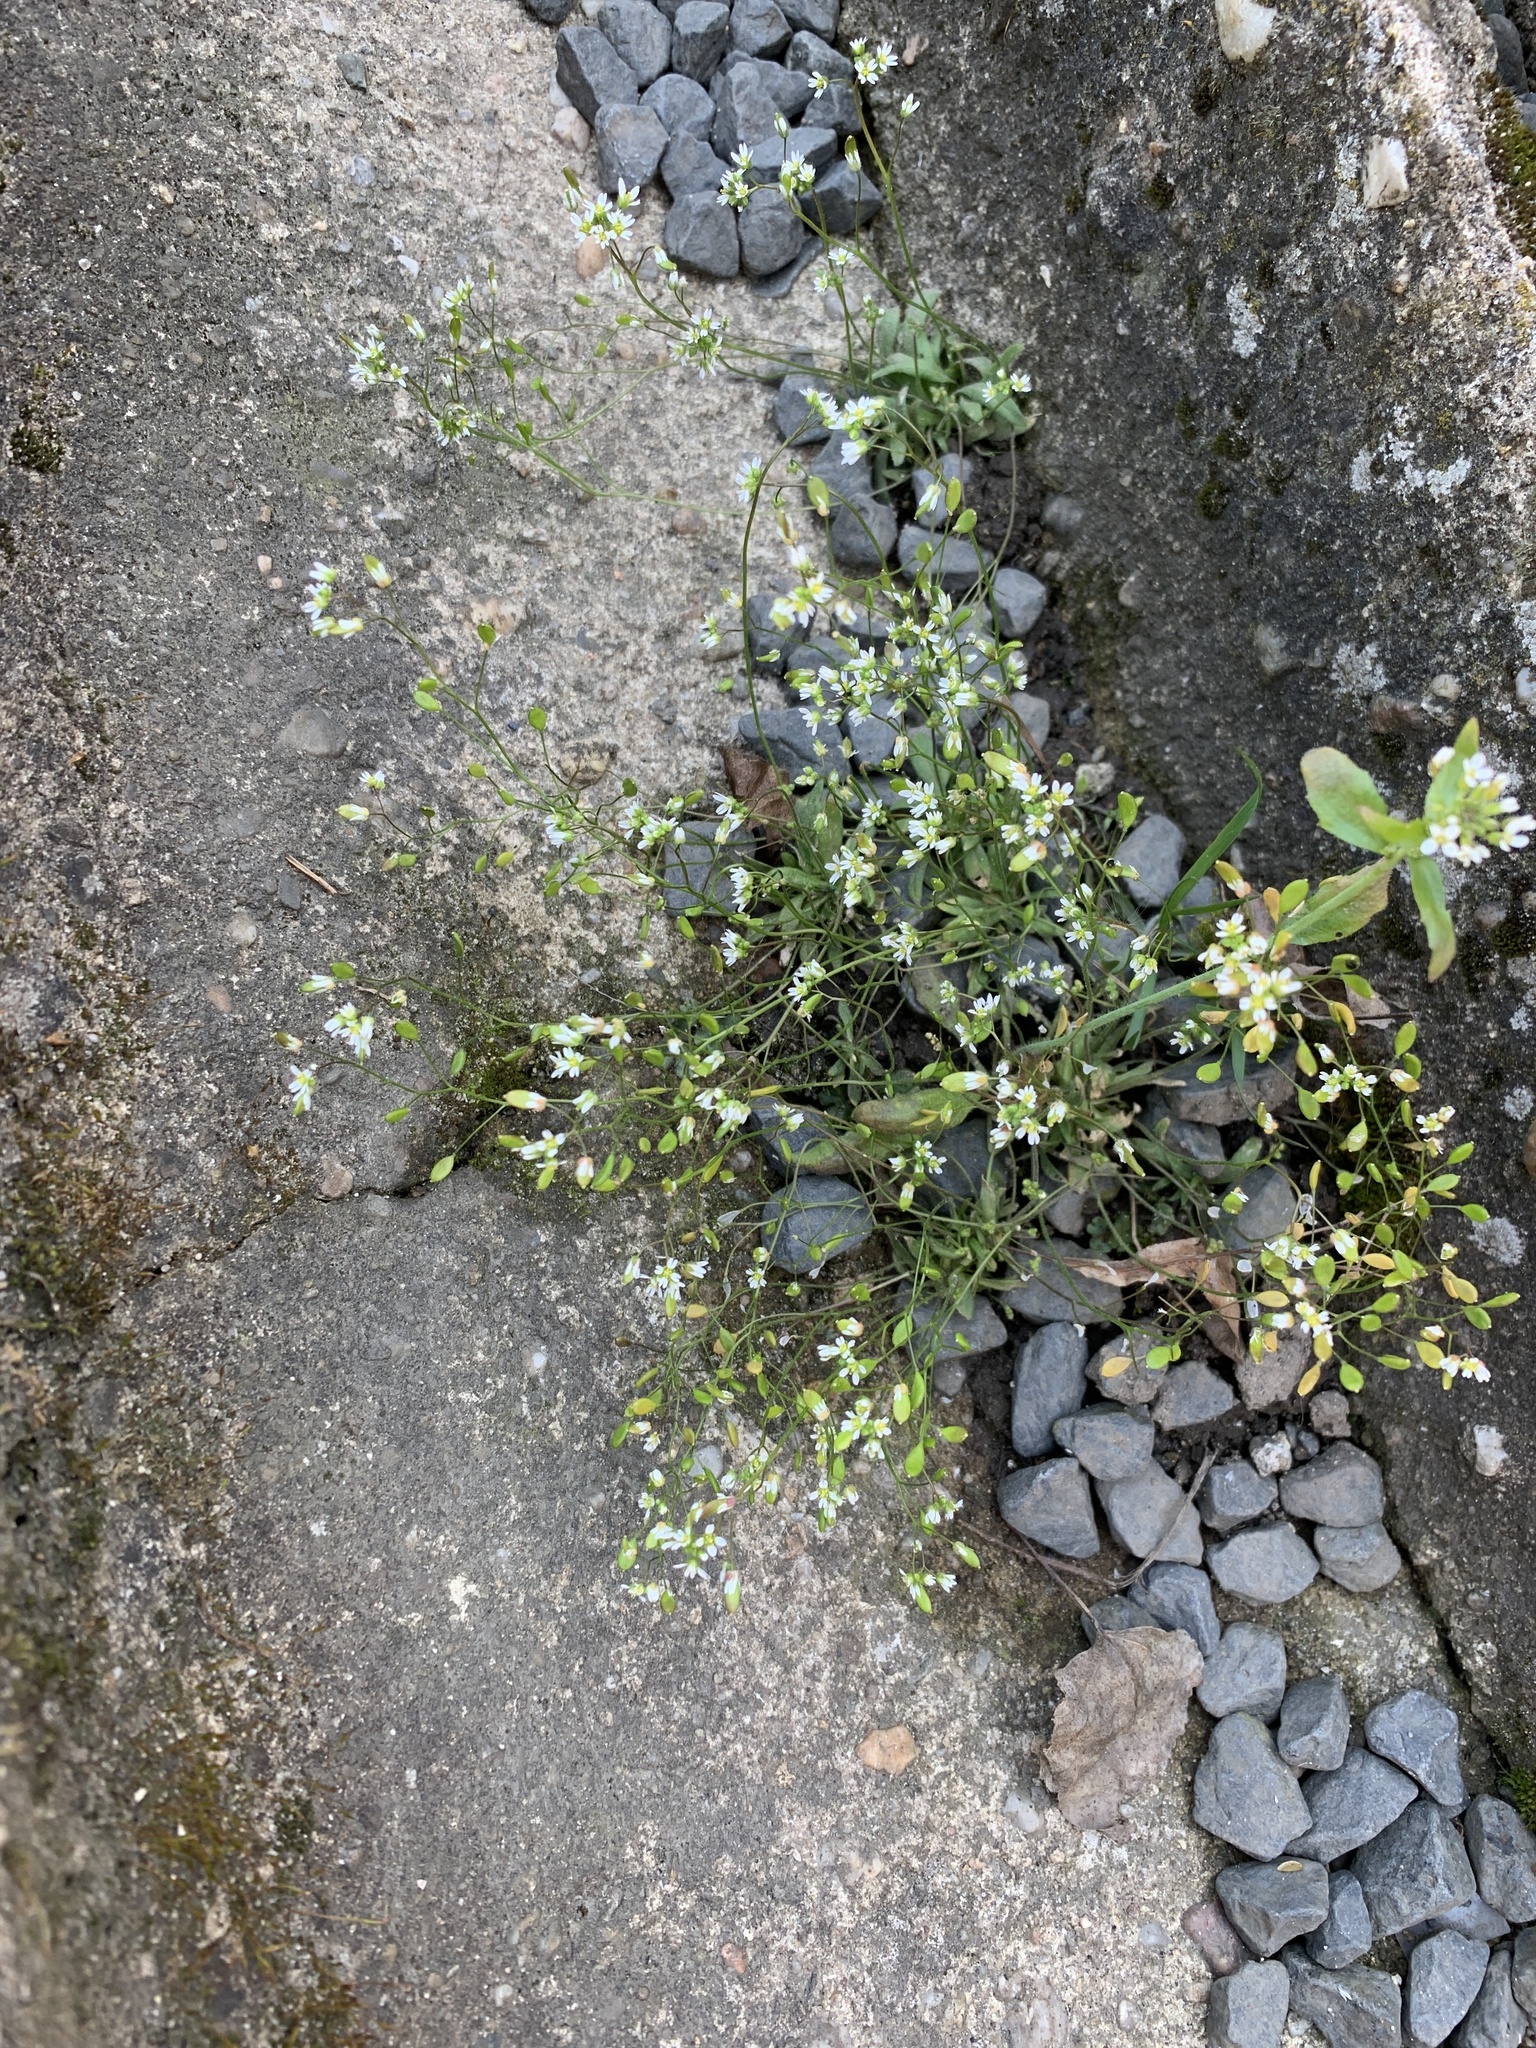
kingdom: Plantae
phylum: Tracheophyta
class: Magnoliopsida
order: Brassicales
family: Brassicaceae
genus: Draba
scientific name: Draba verna
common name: Spring draba
